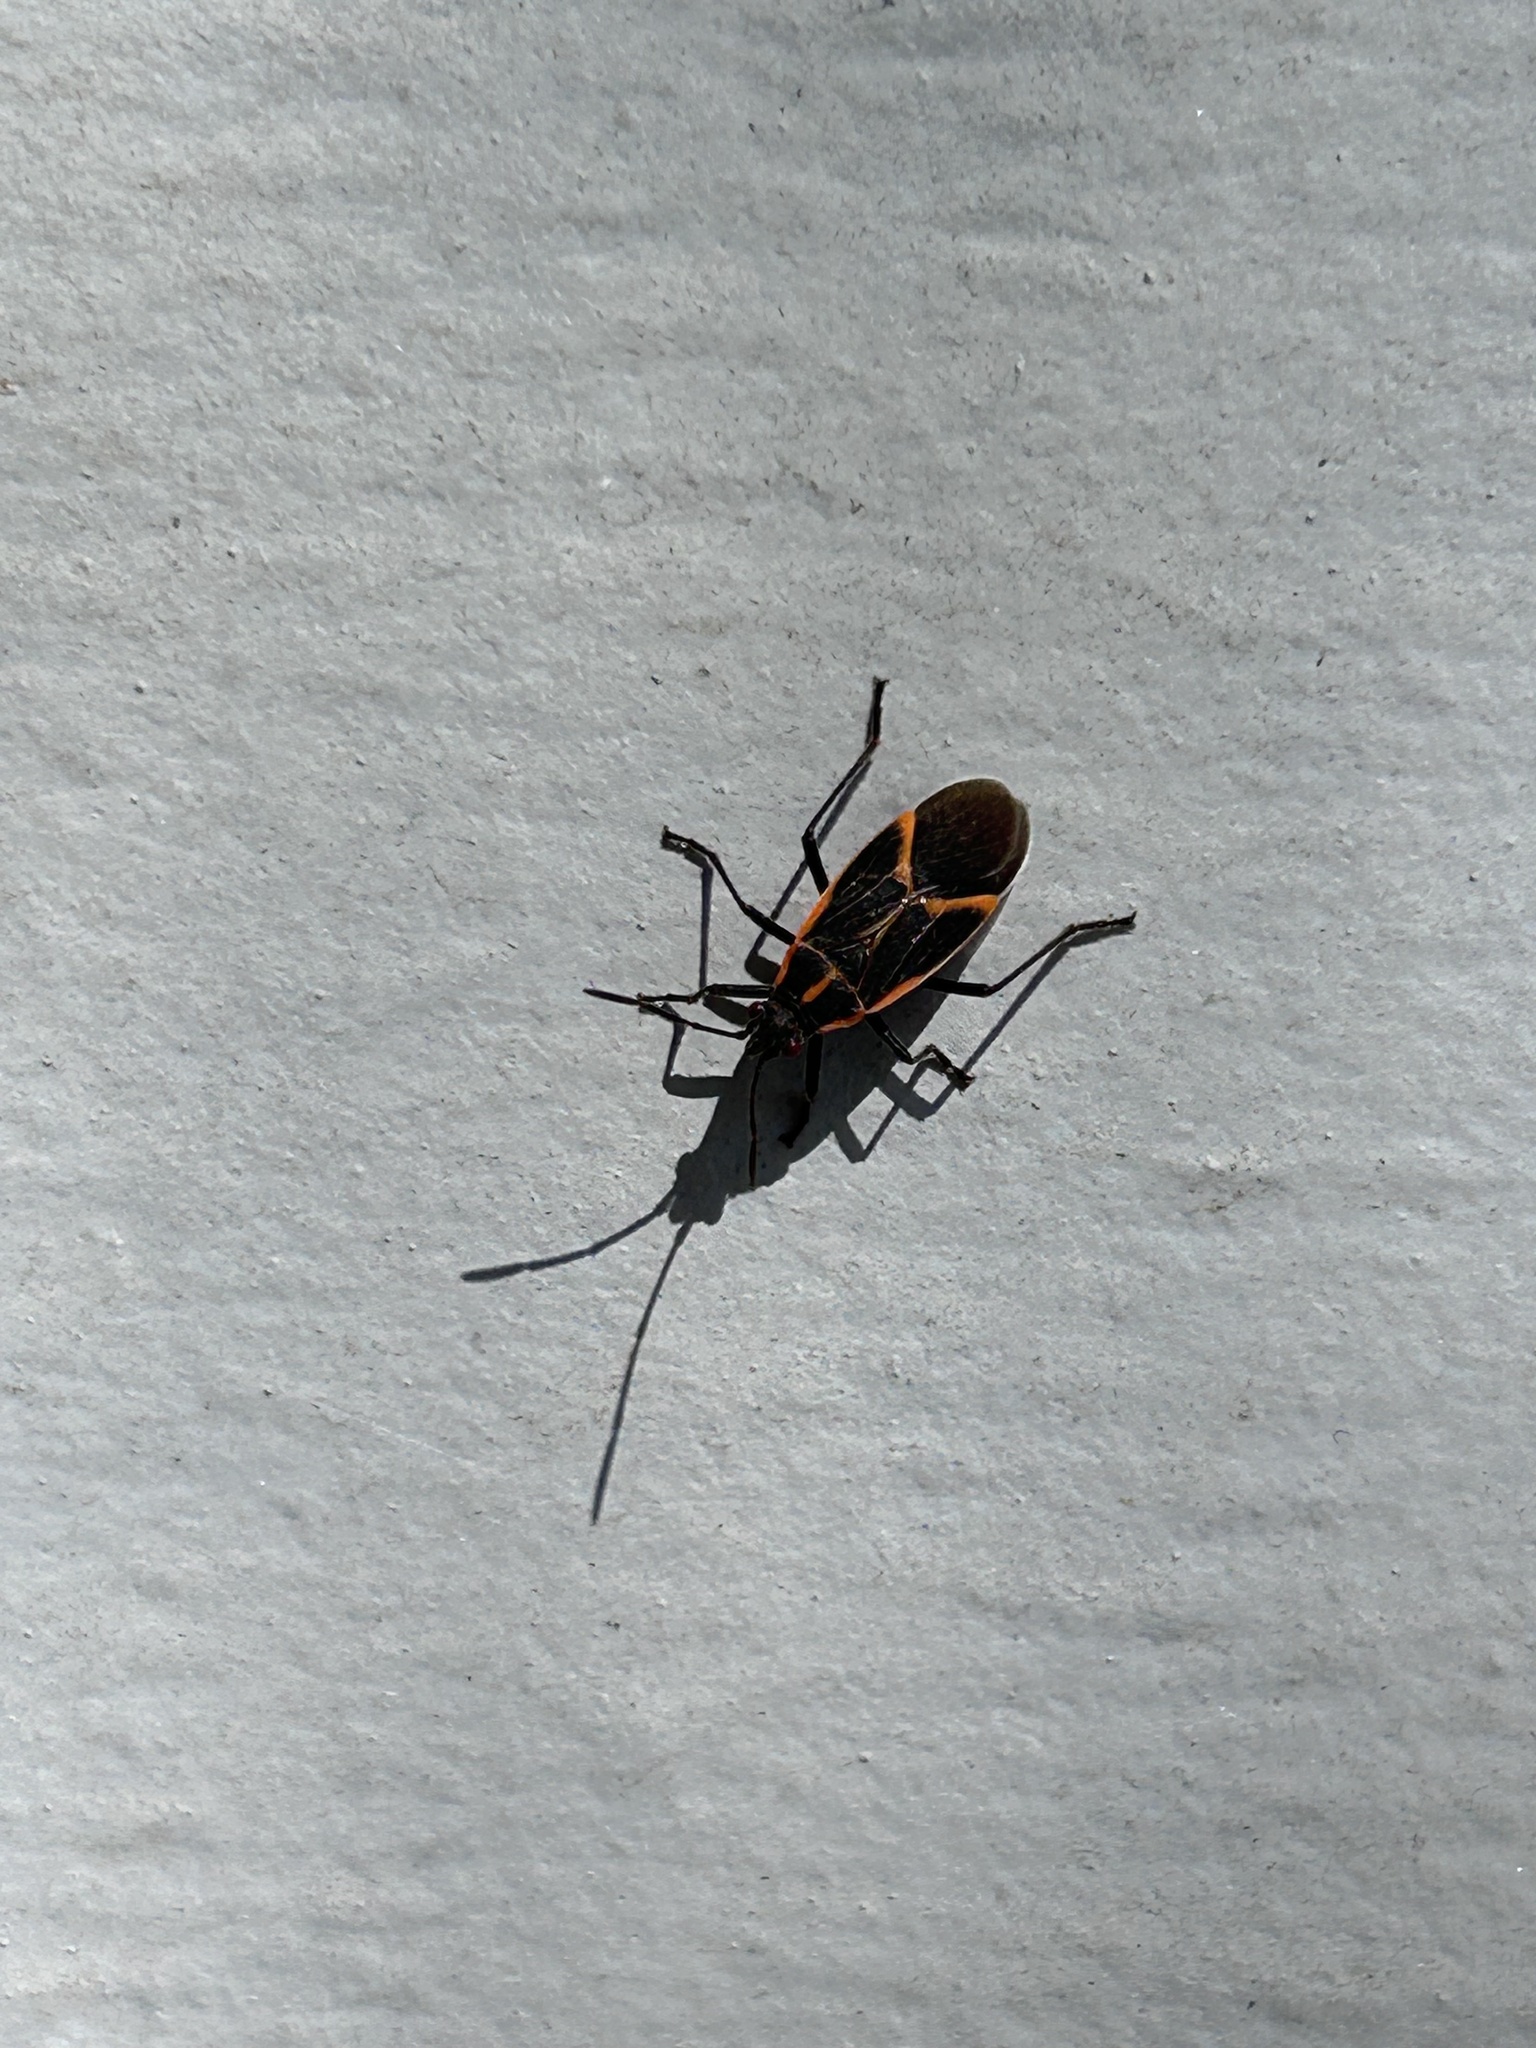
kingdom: Animalia
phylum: Arthropoda
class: Insecta
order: Hemiptera
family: Rhopalidae
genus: Boisea
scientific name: Boisea trivittata
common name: Boxelder bug
